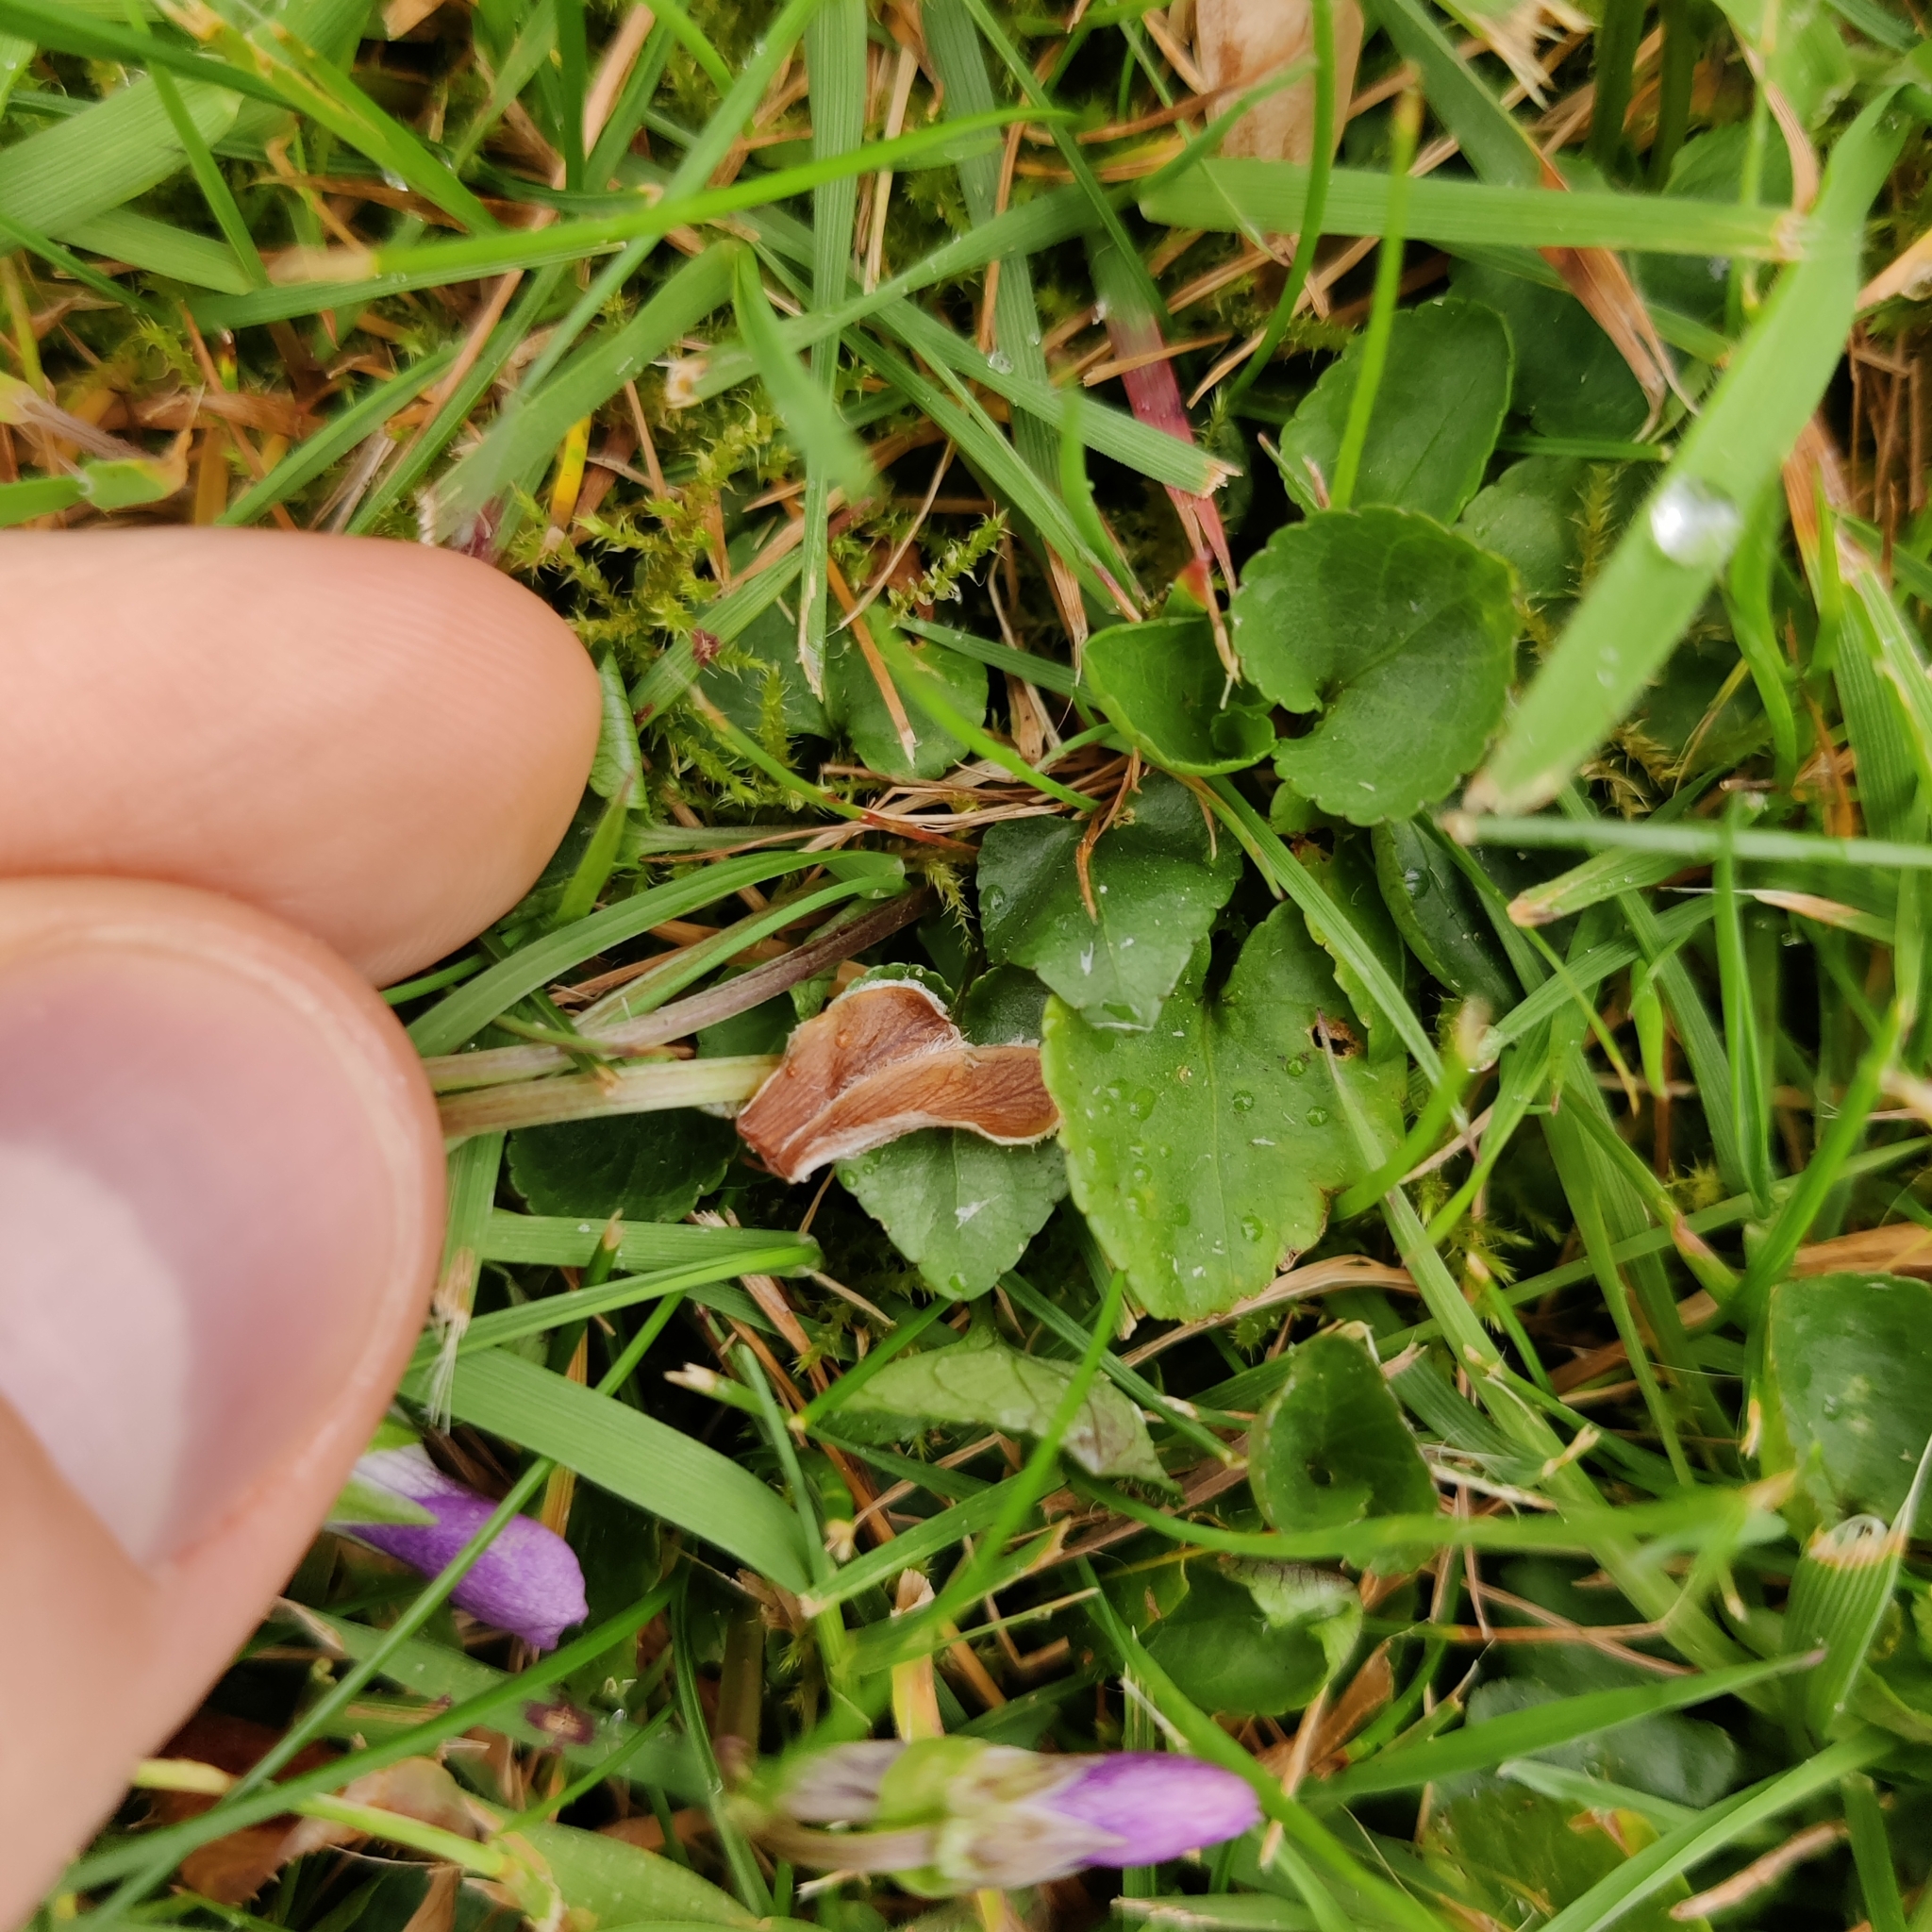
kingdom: Plantae
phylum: Tracheophyta
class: Magnoliopsida
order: Malpighiales
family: Violaceae
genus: Viola
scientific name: Viola riviniana
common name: Common dog-violet
